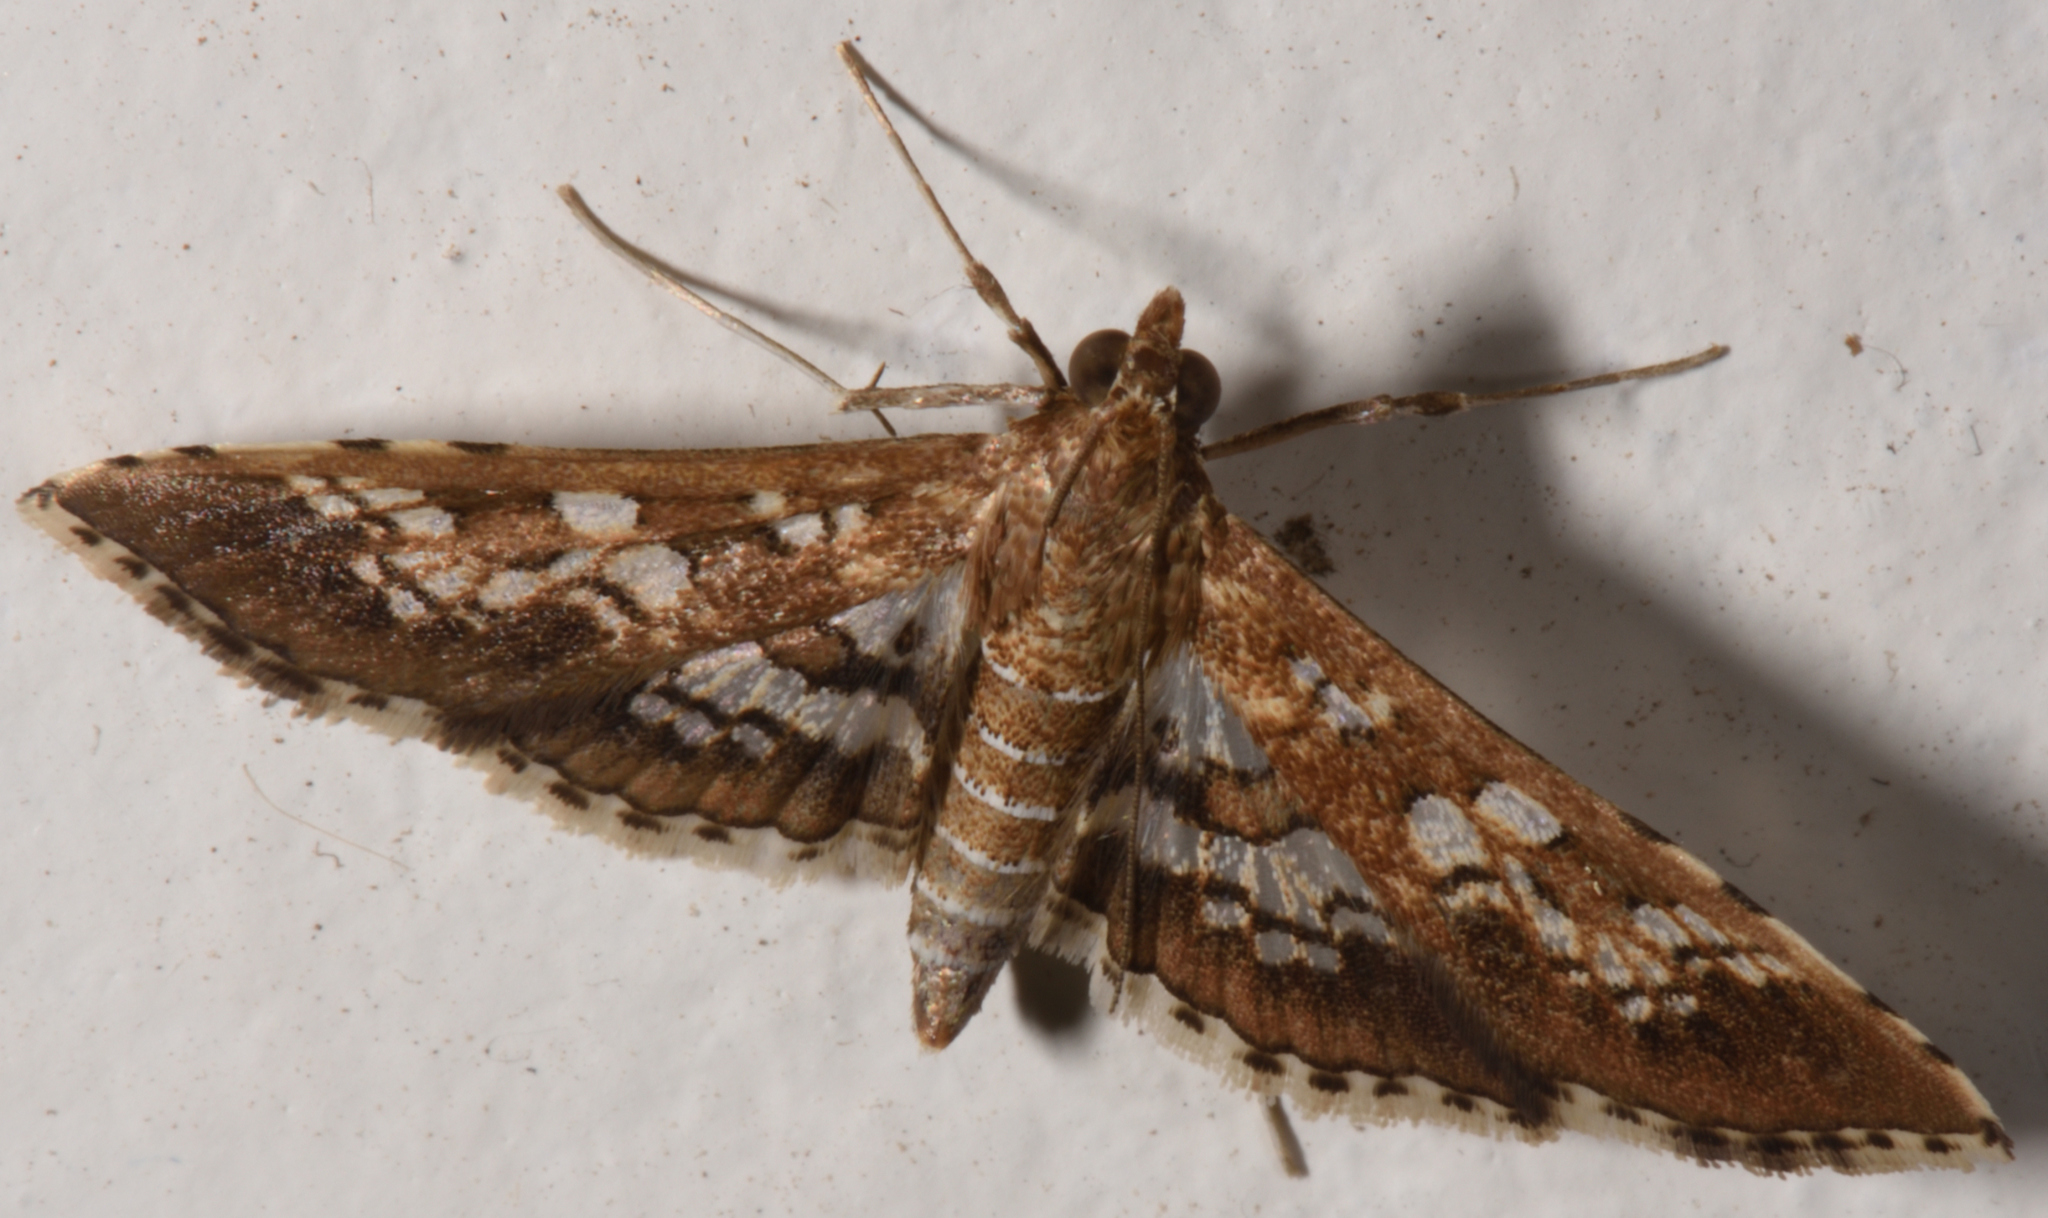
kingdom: Animalia
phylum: Arthropoda
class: Insecta
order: Lepidoptera
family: Crambidae
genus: Sameodes
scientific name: Sameodes cancellalis
